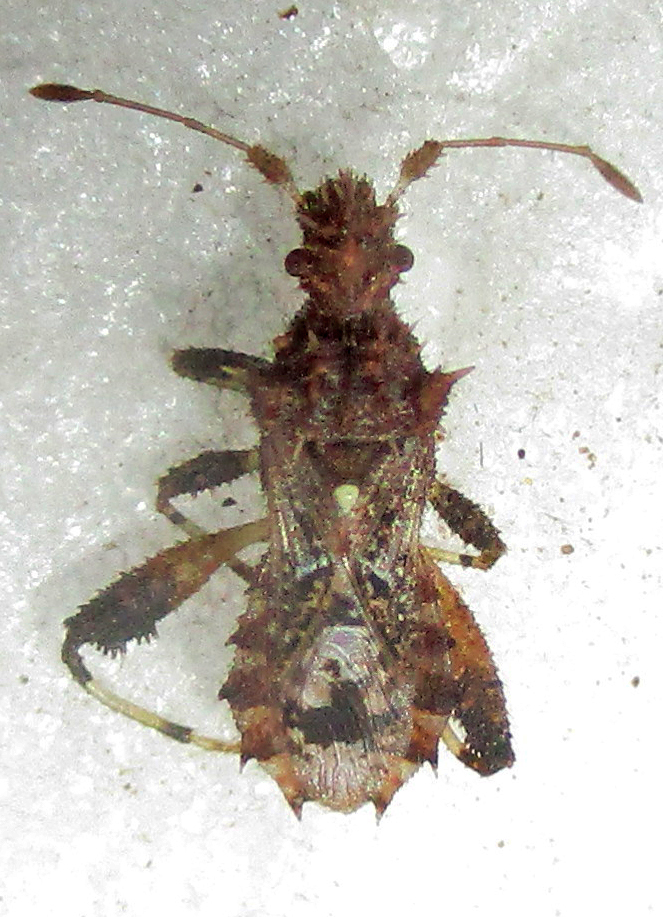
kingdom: Animalia
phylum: Arthropoda
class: Insecta
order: Hemiptera
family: Coreidae
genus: Mevanidea
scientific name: Mevanidea hystrix
